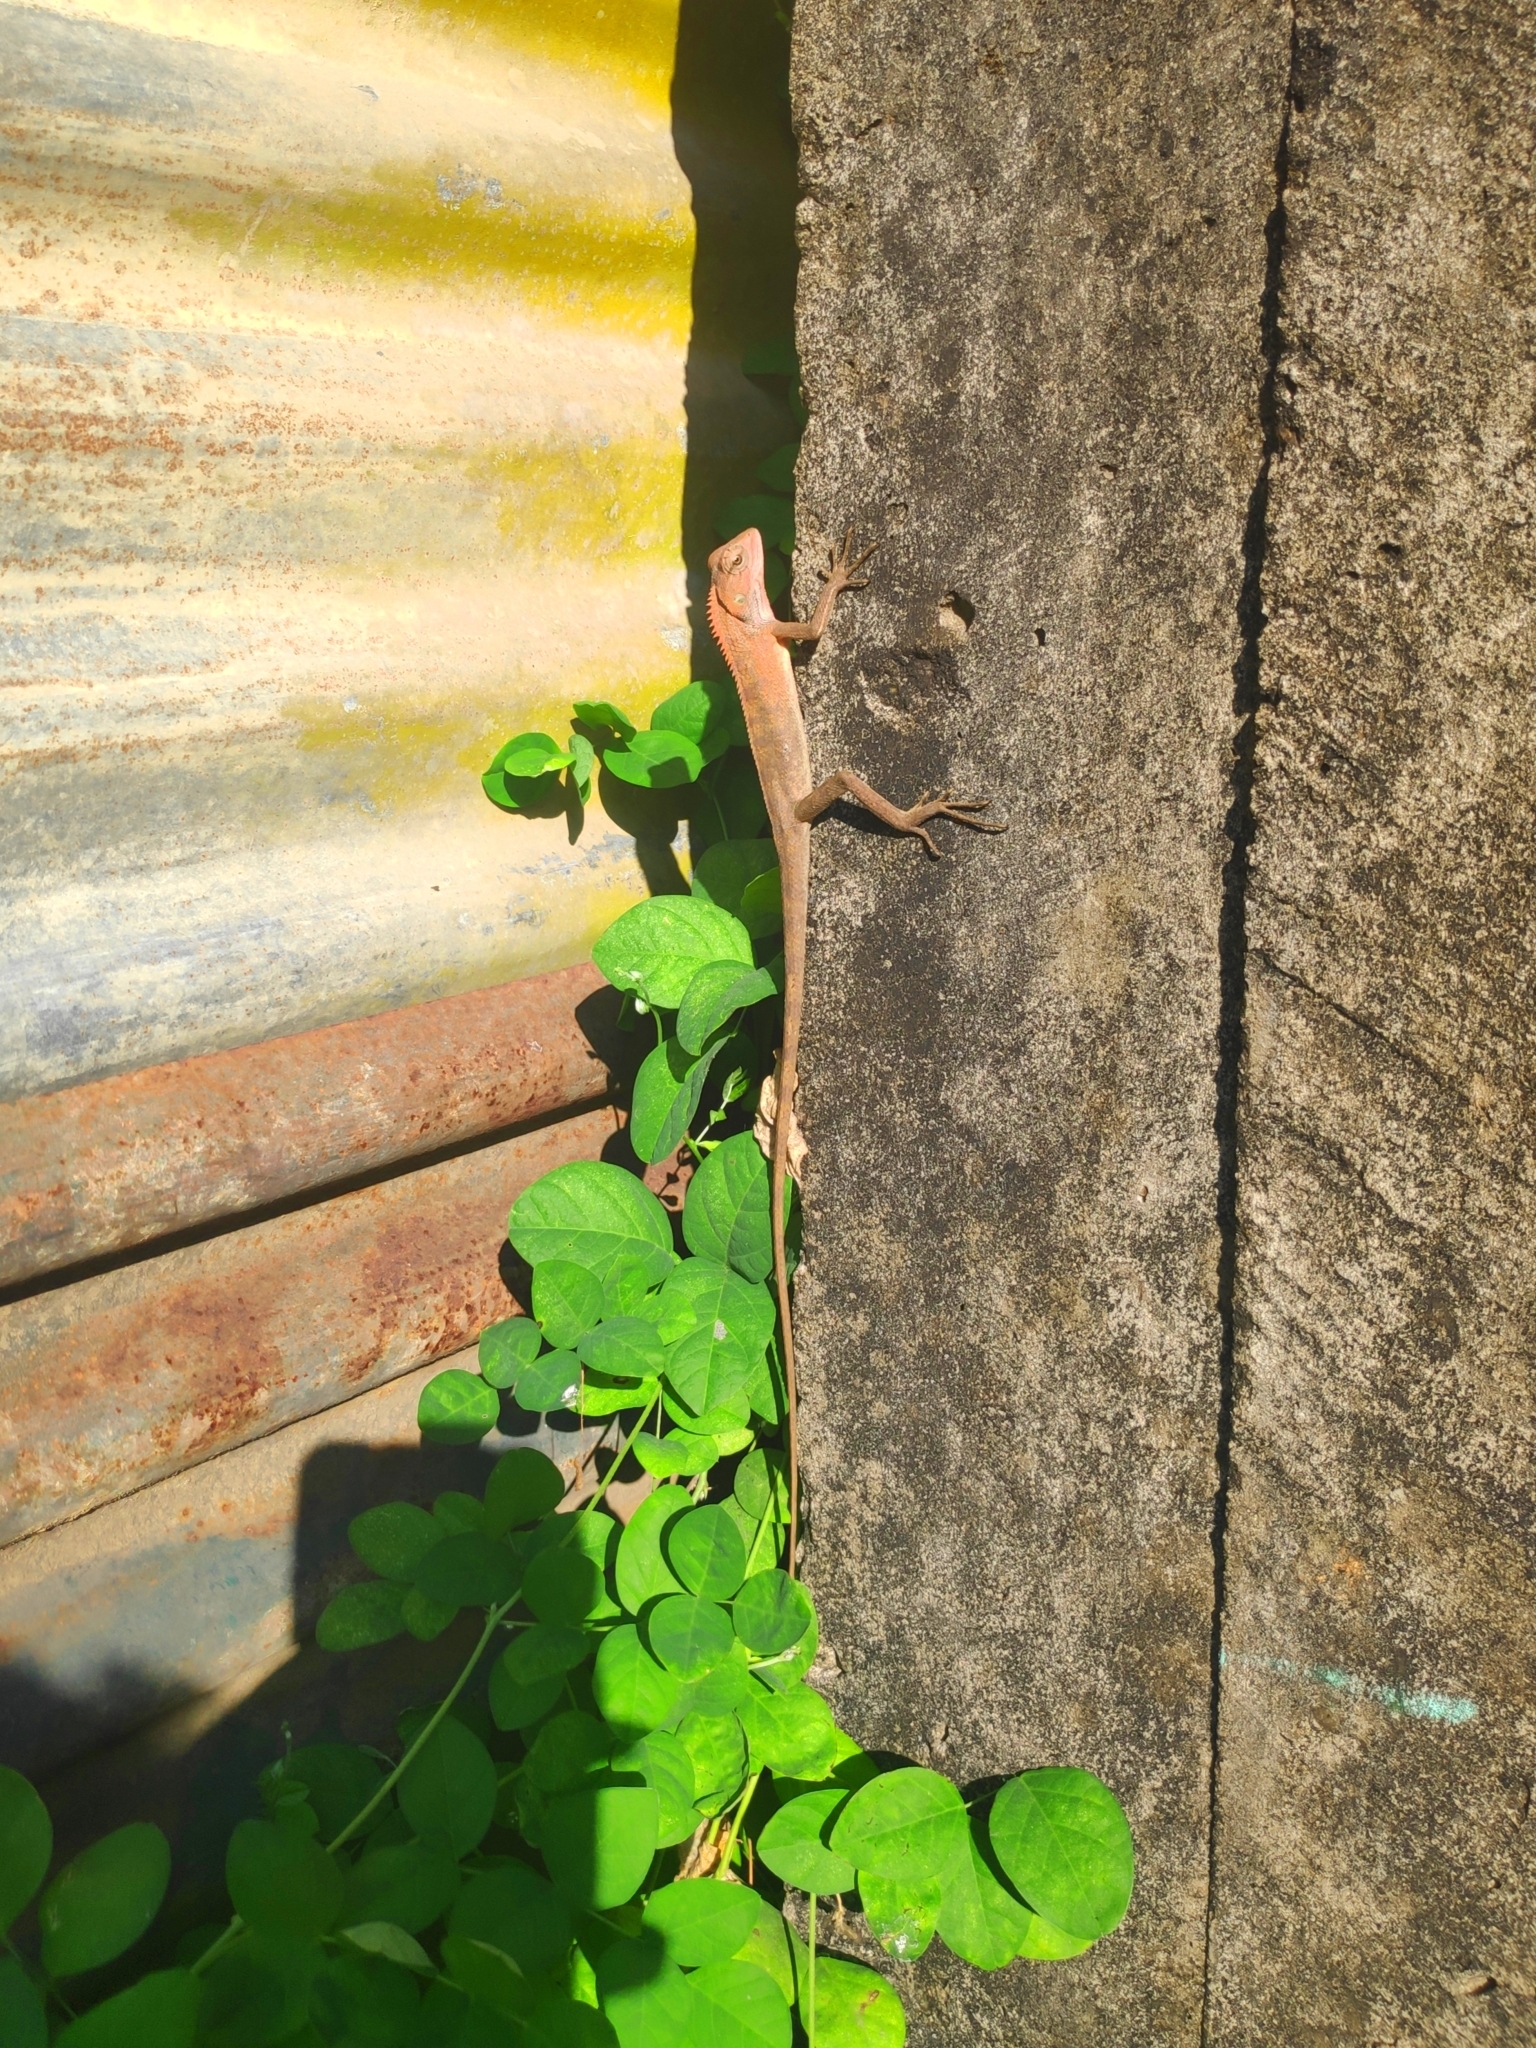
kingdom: Animalia
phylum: Chordata
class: Squamata
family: Agamidae
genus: Calotes
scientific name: Calotes versicolor
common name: Oriental garden lizard
